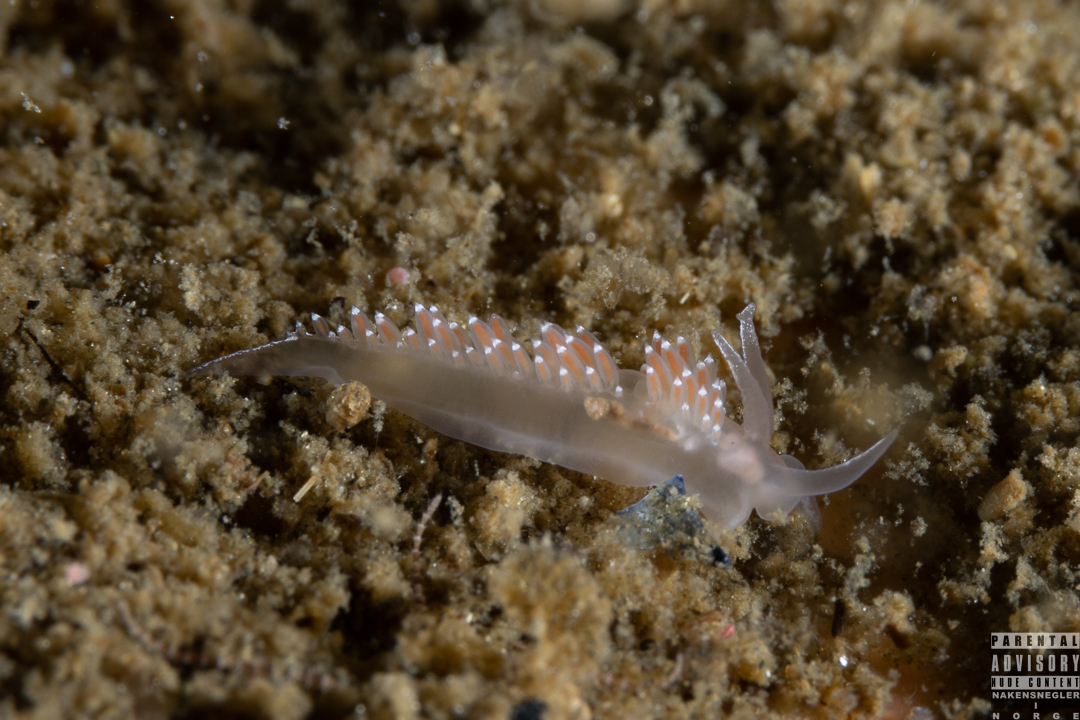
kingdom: Animalia
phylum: Mollusca
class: Gastropoda
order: Nudibranchia
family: Coryphellidae
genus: Coryphella
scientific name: Coryphella verrucosa
